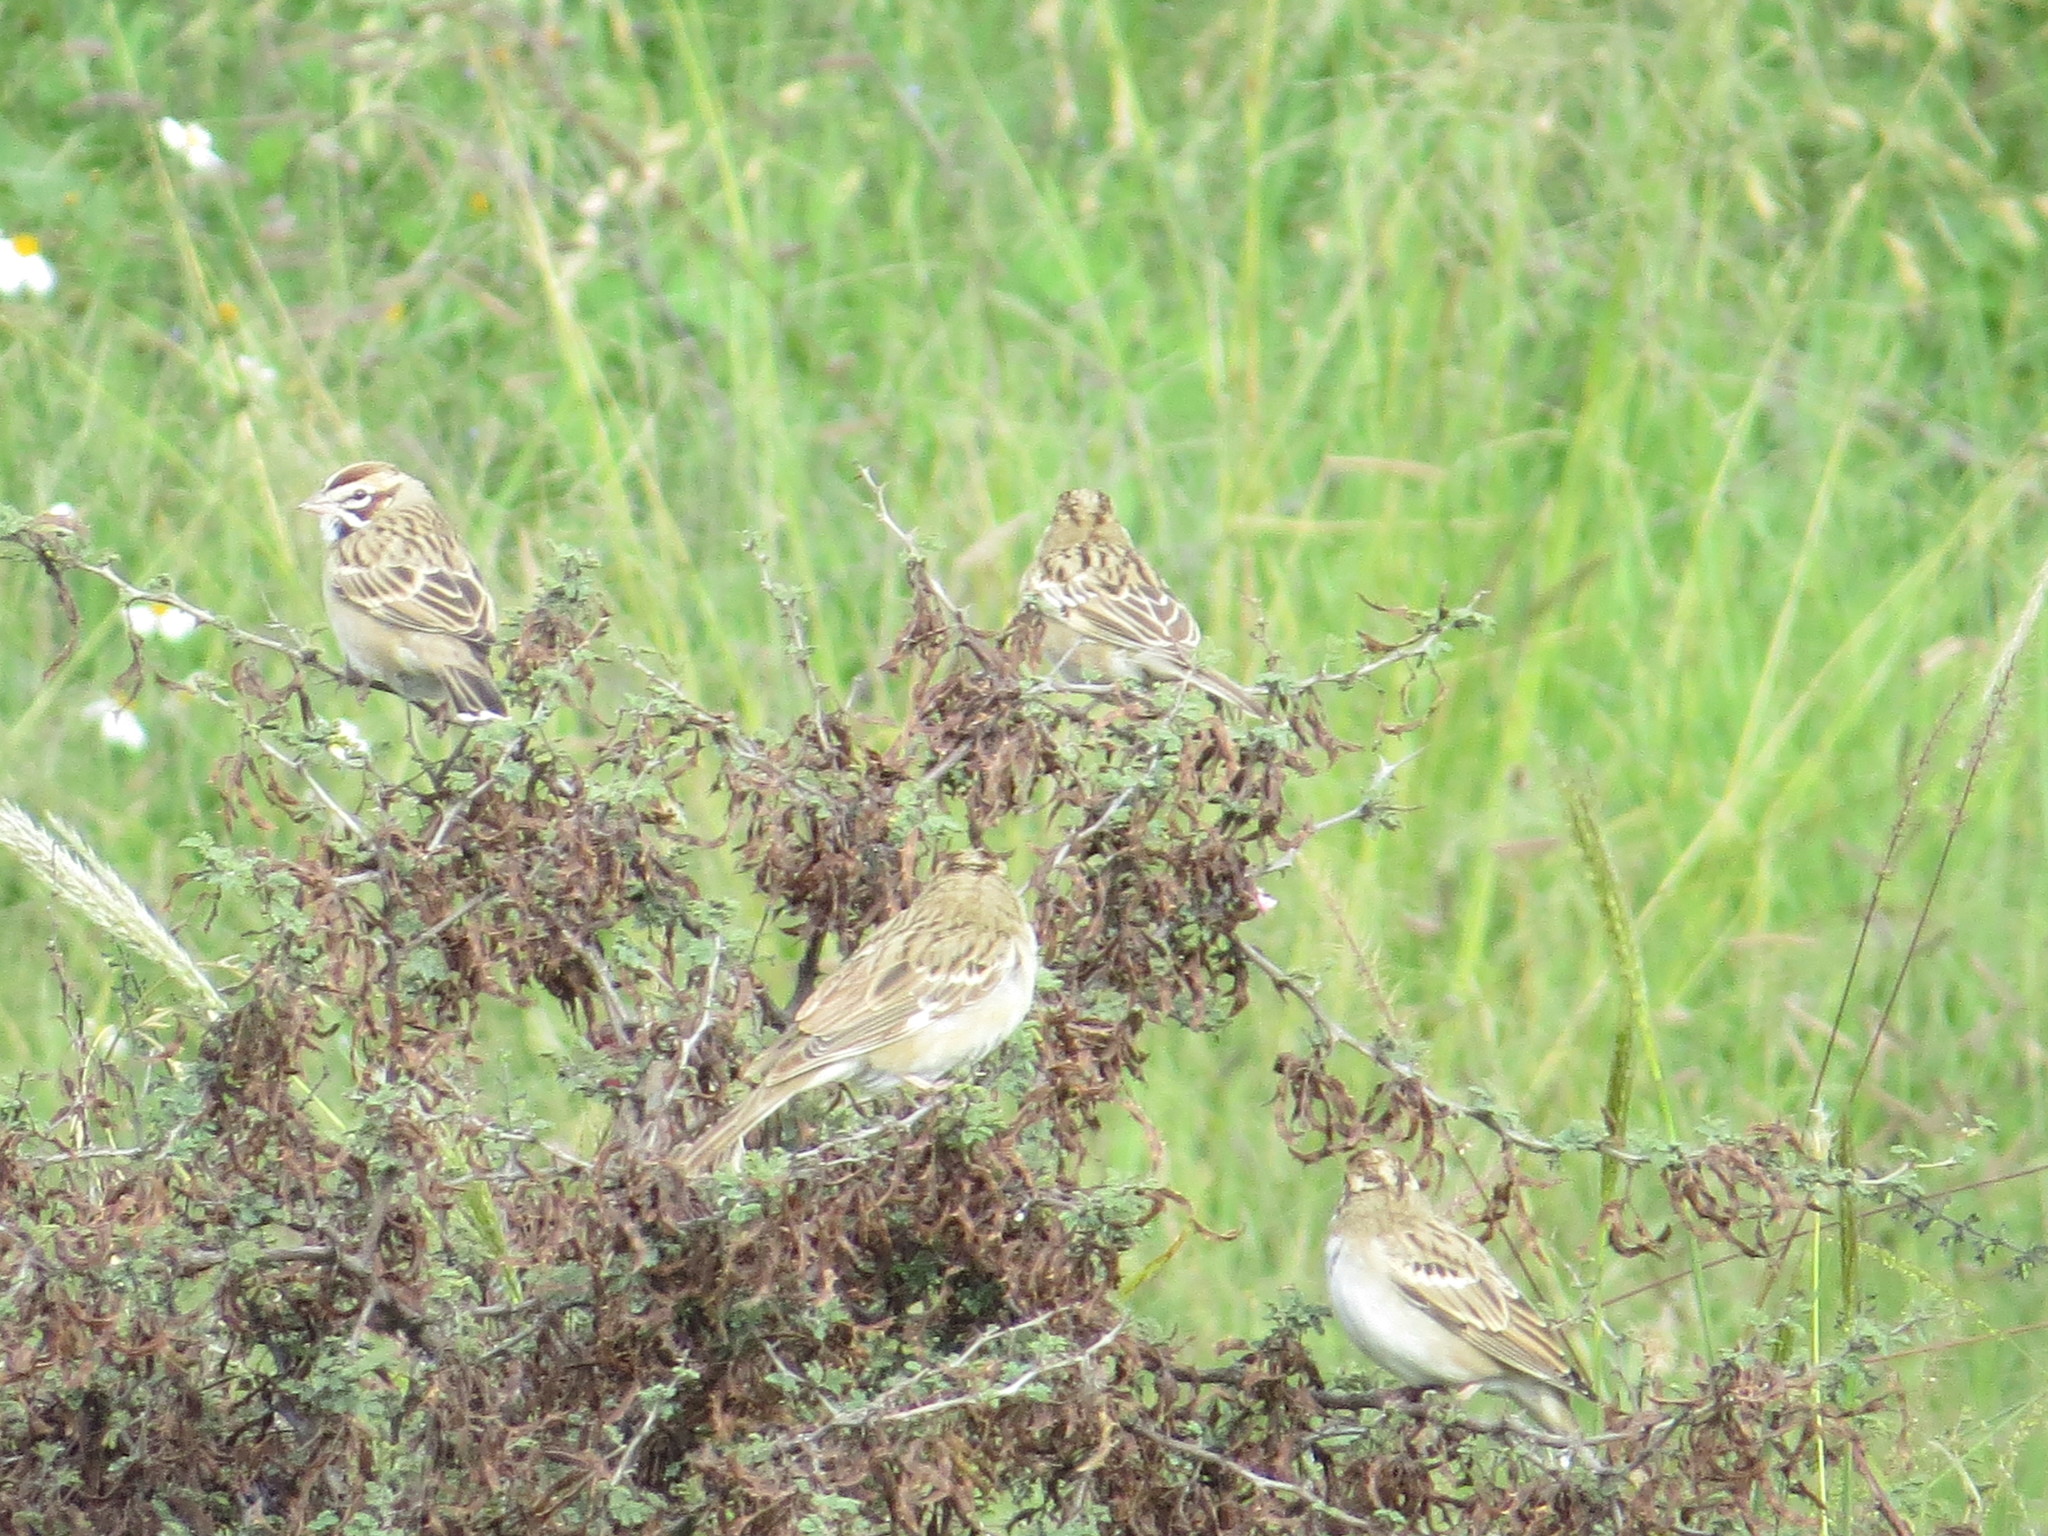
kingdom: Animalia
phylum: Chordata
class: Aves
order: Passeriformes
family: Passerellidae
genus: Chondestes
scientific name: Chondestes grammacus
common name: Lark sparrow
